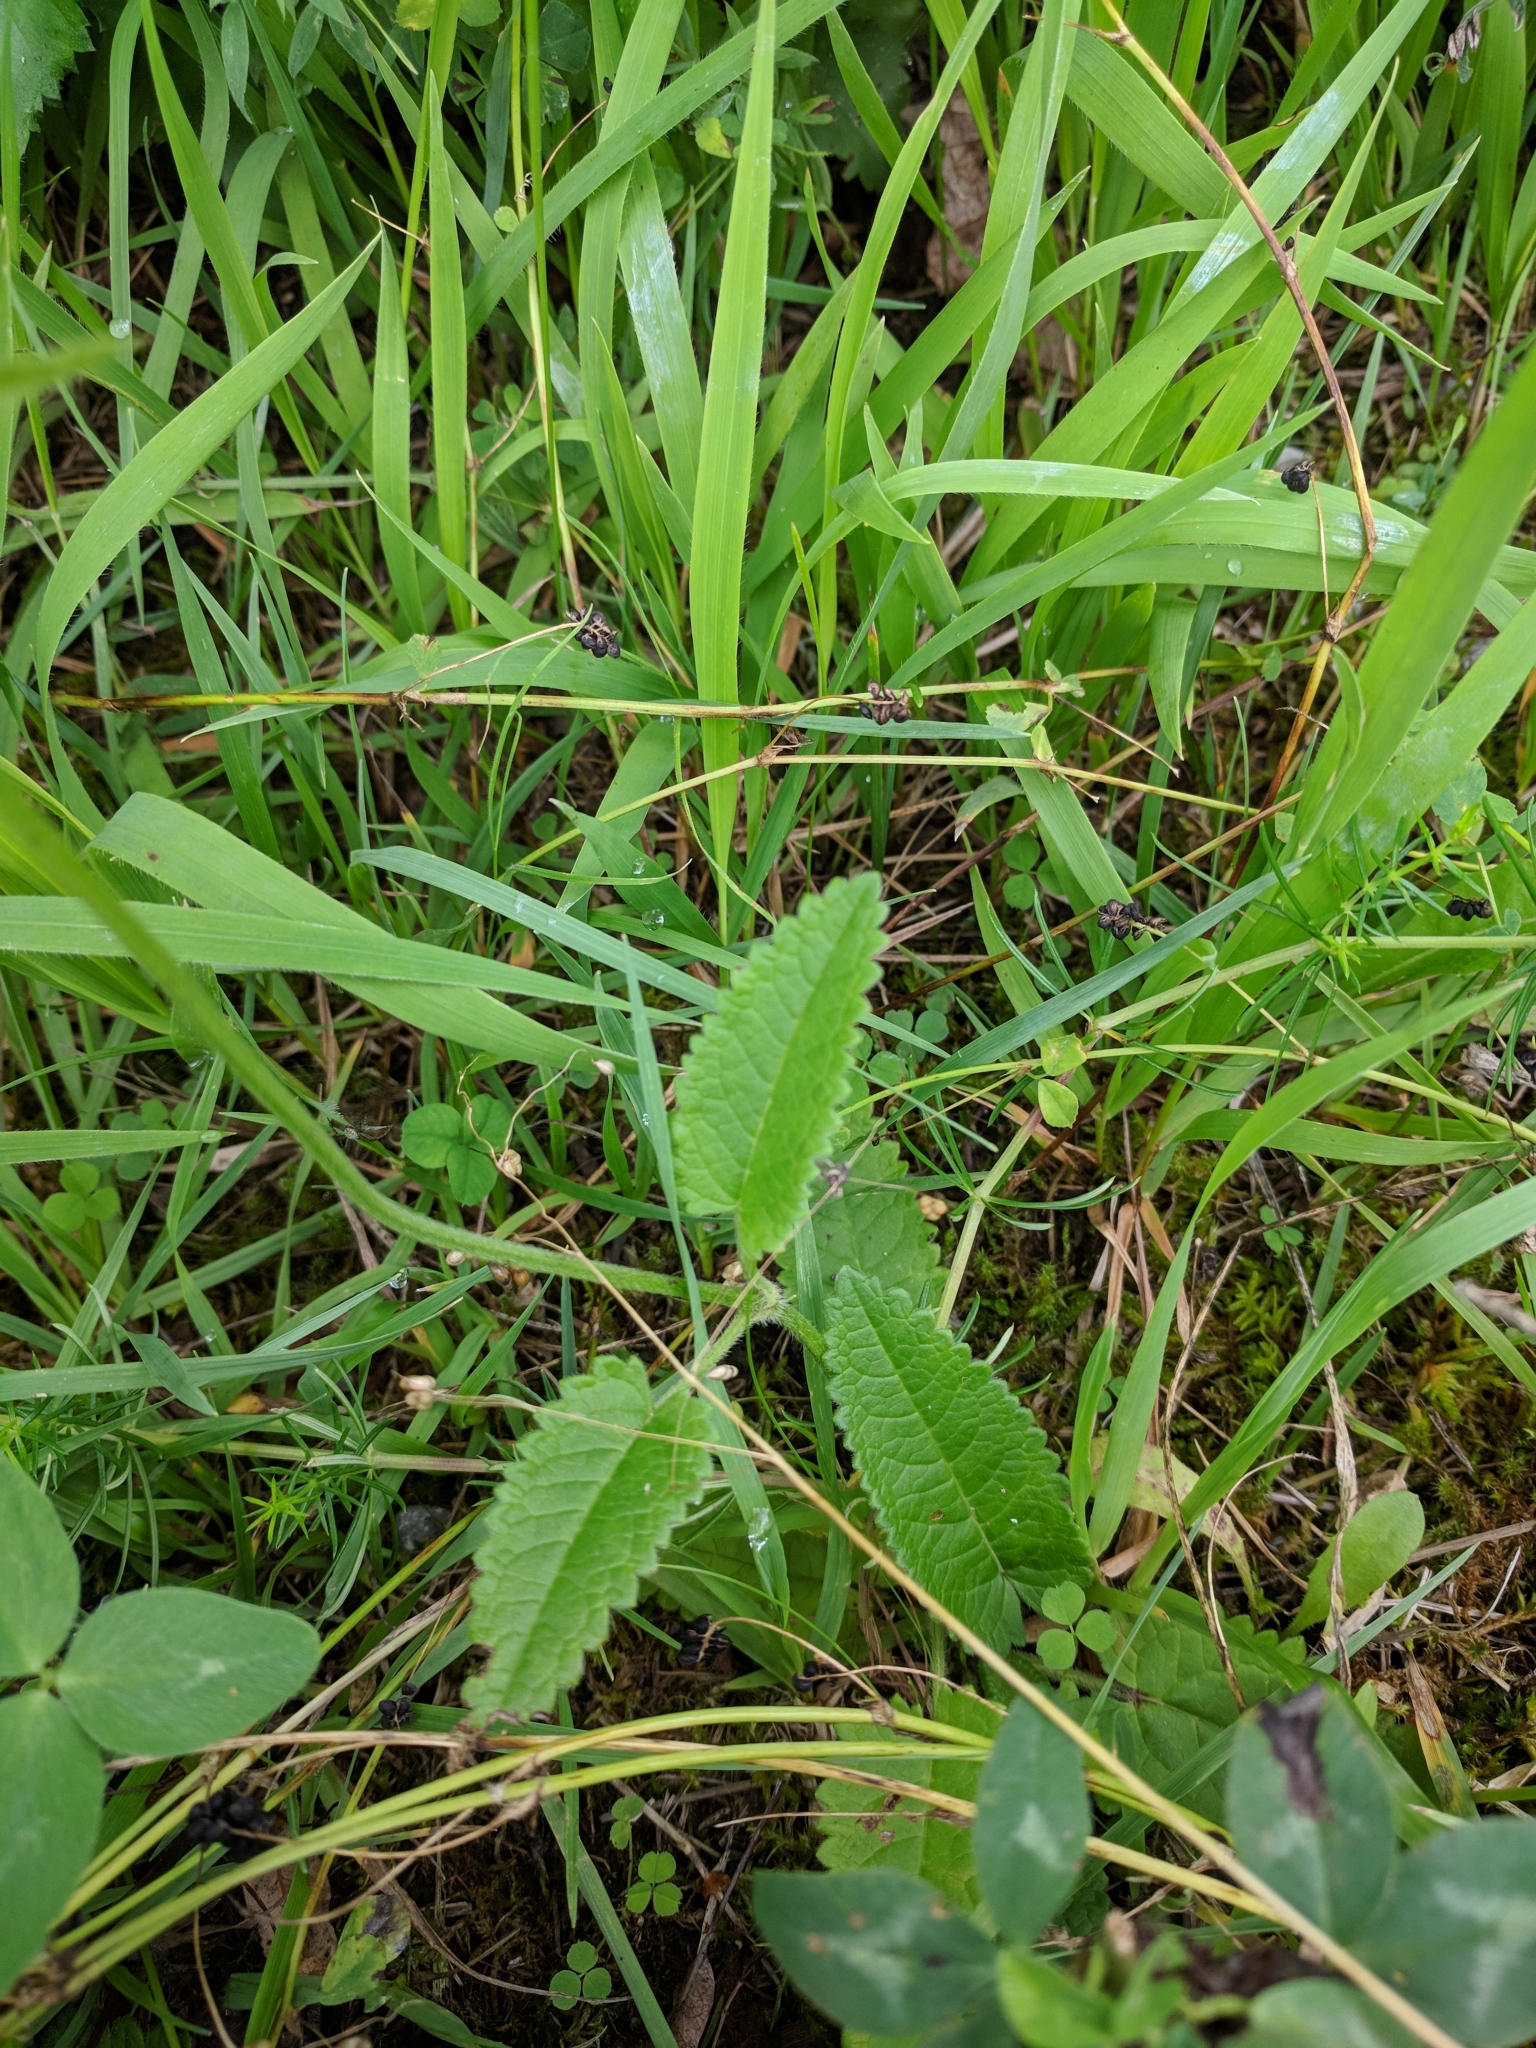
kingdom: Plantae
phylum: Tracheophyta
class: Magnoliopsida
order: Lamiales
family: Lamiaceae
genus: Betonica
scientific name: Betonica officinalis
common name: Bishop's-wort
